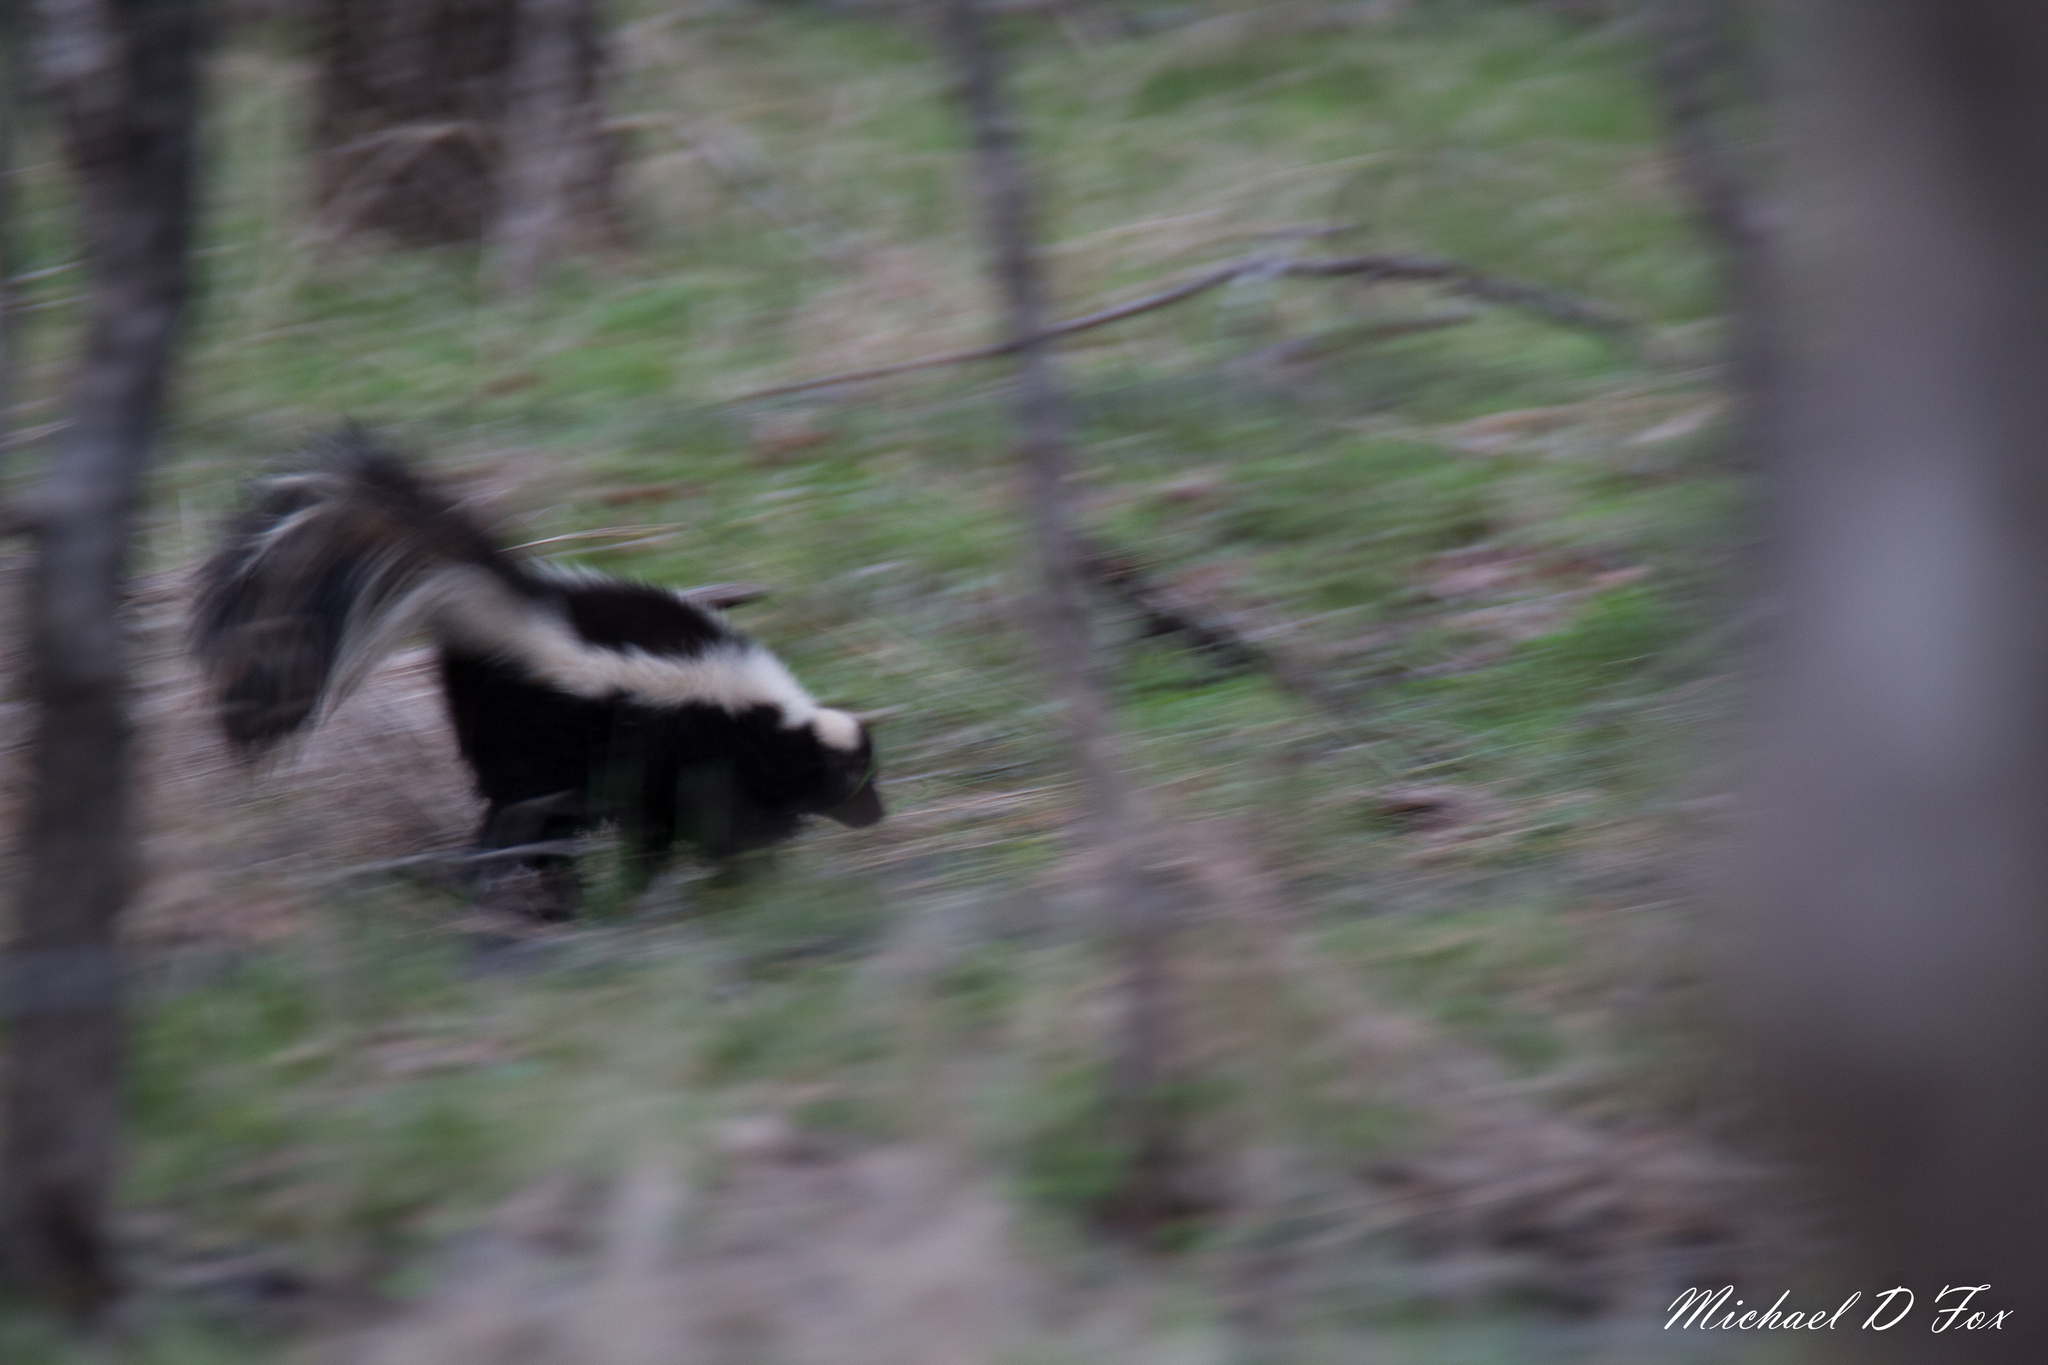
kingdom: Animalia
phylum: Chordata
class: Mammalia
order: Carnivora
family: Mephitidae
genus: Mephitis
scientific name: Mephitis mephitis
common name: Striped skunk
